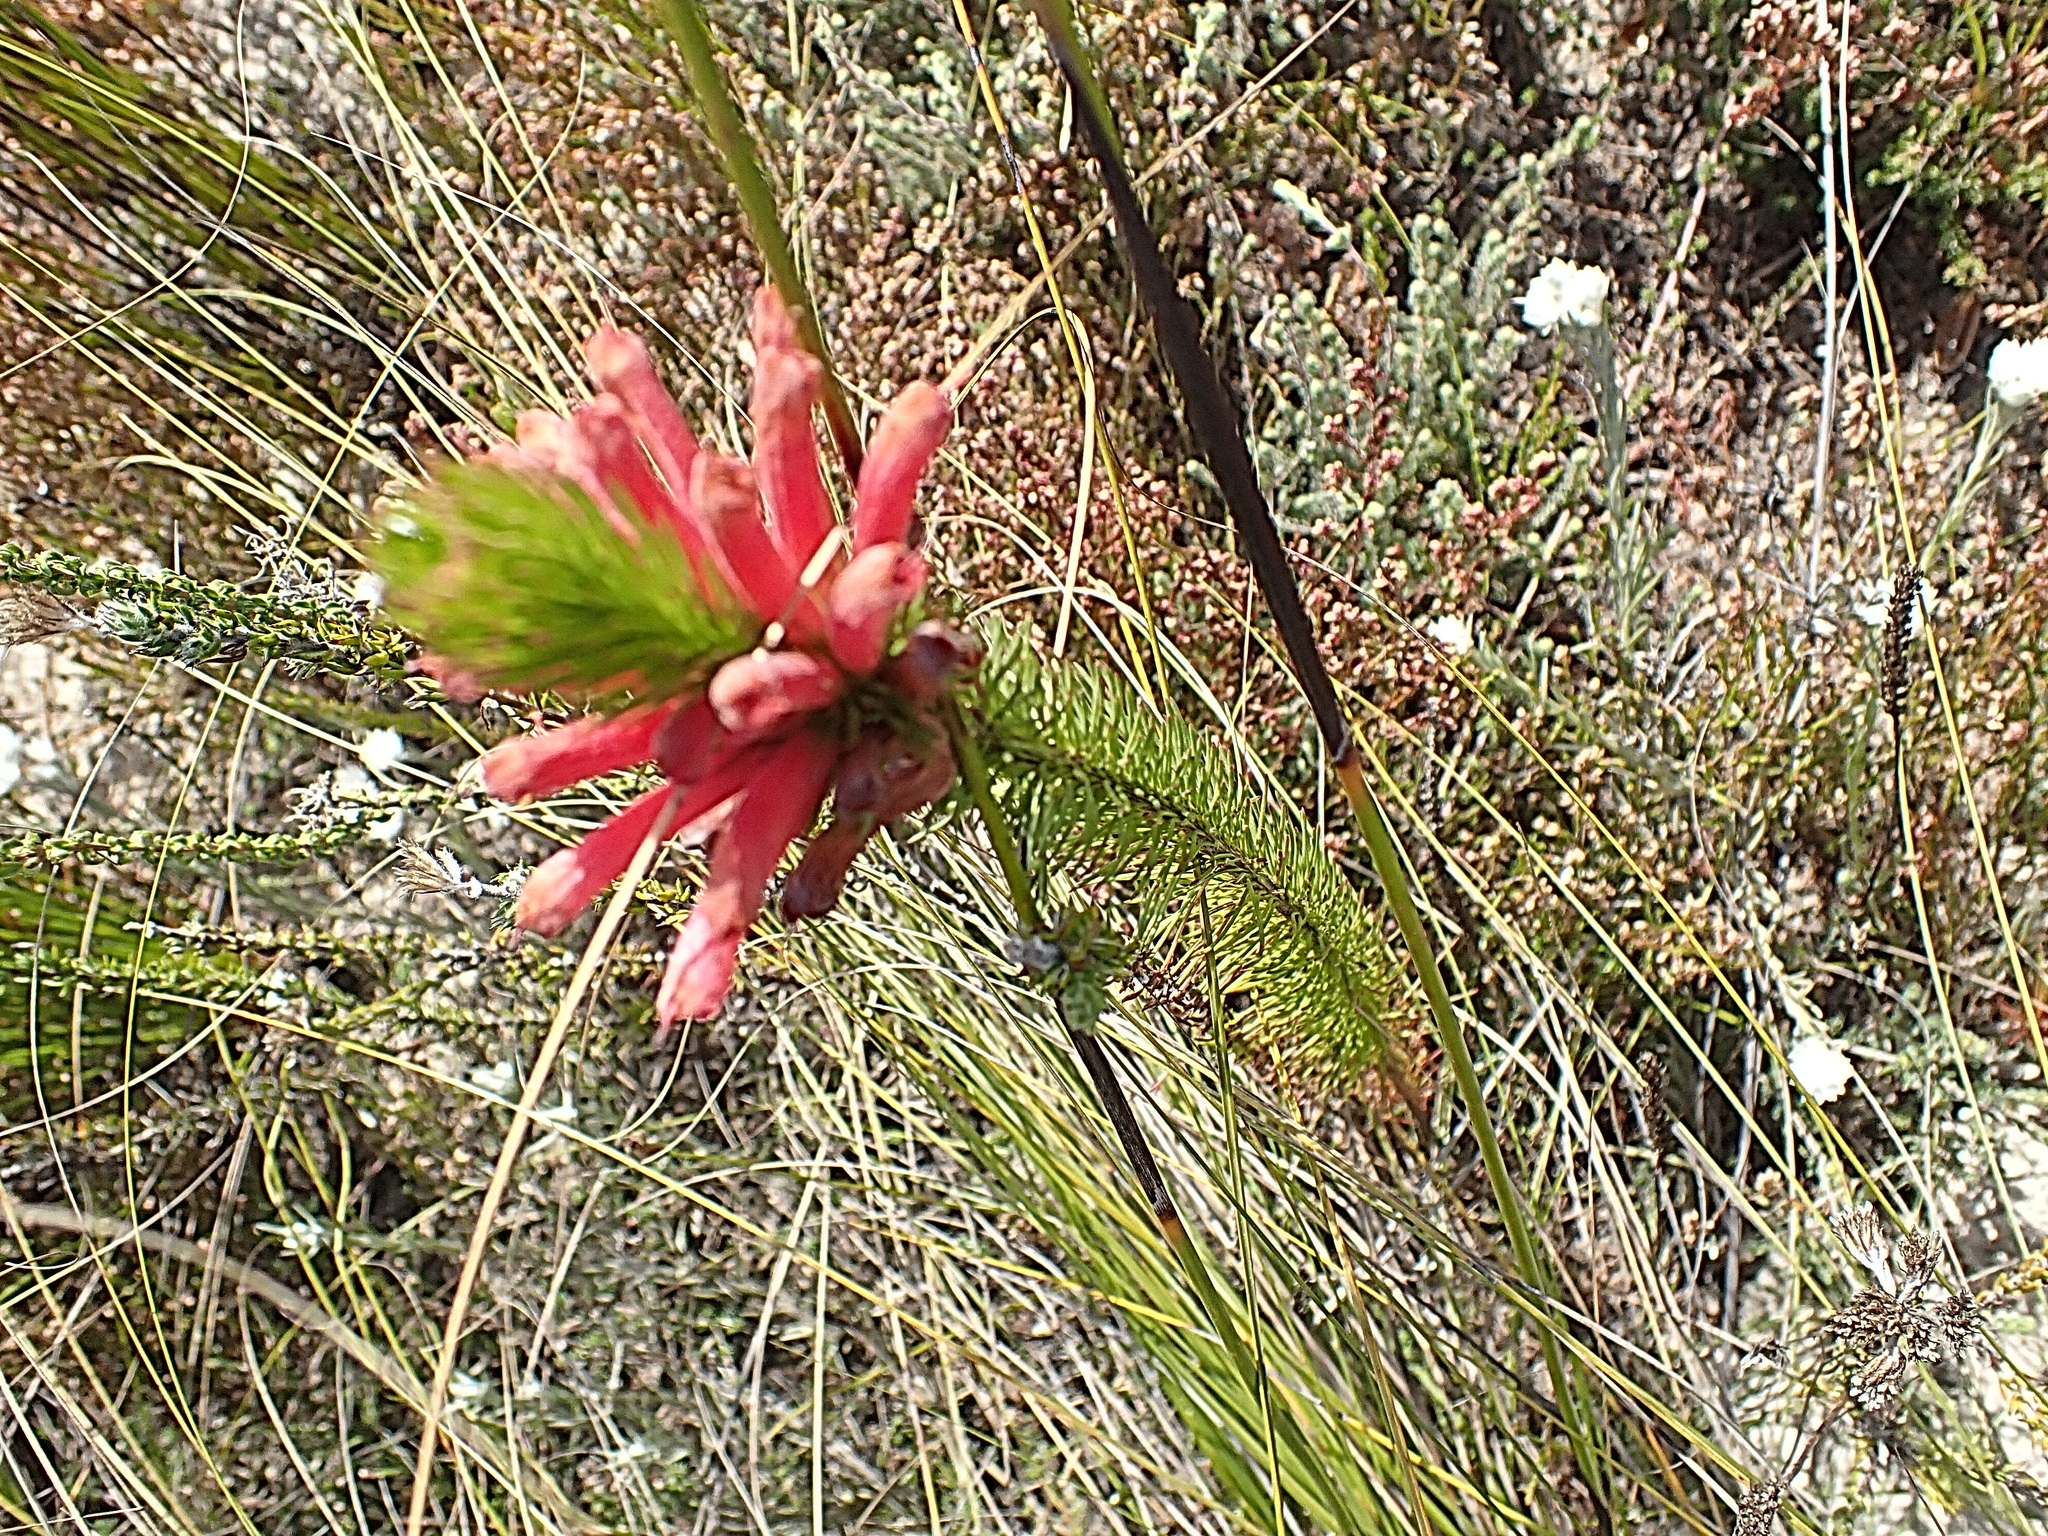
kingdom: Plantae
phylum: Tracheophyta
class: Magnoliopsida
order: Ericales
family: Ericaceae
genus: Erica
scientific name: Erica vestita
